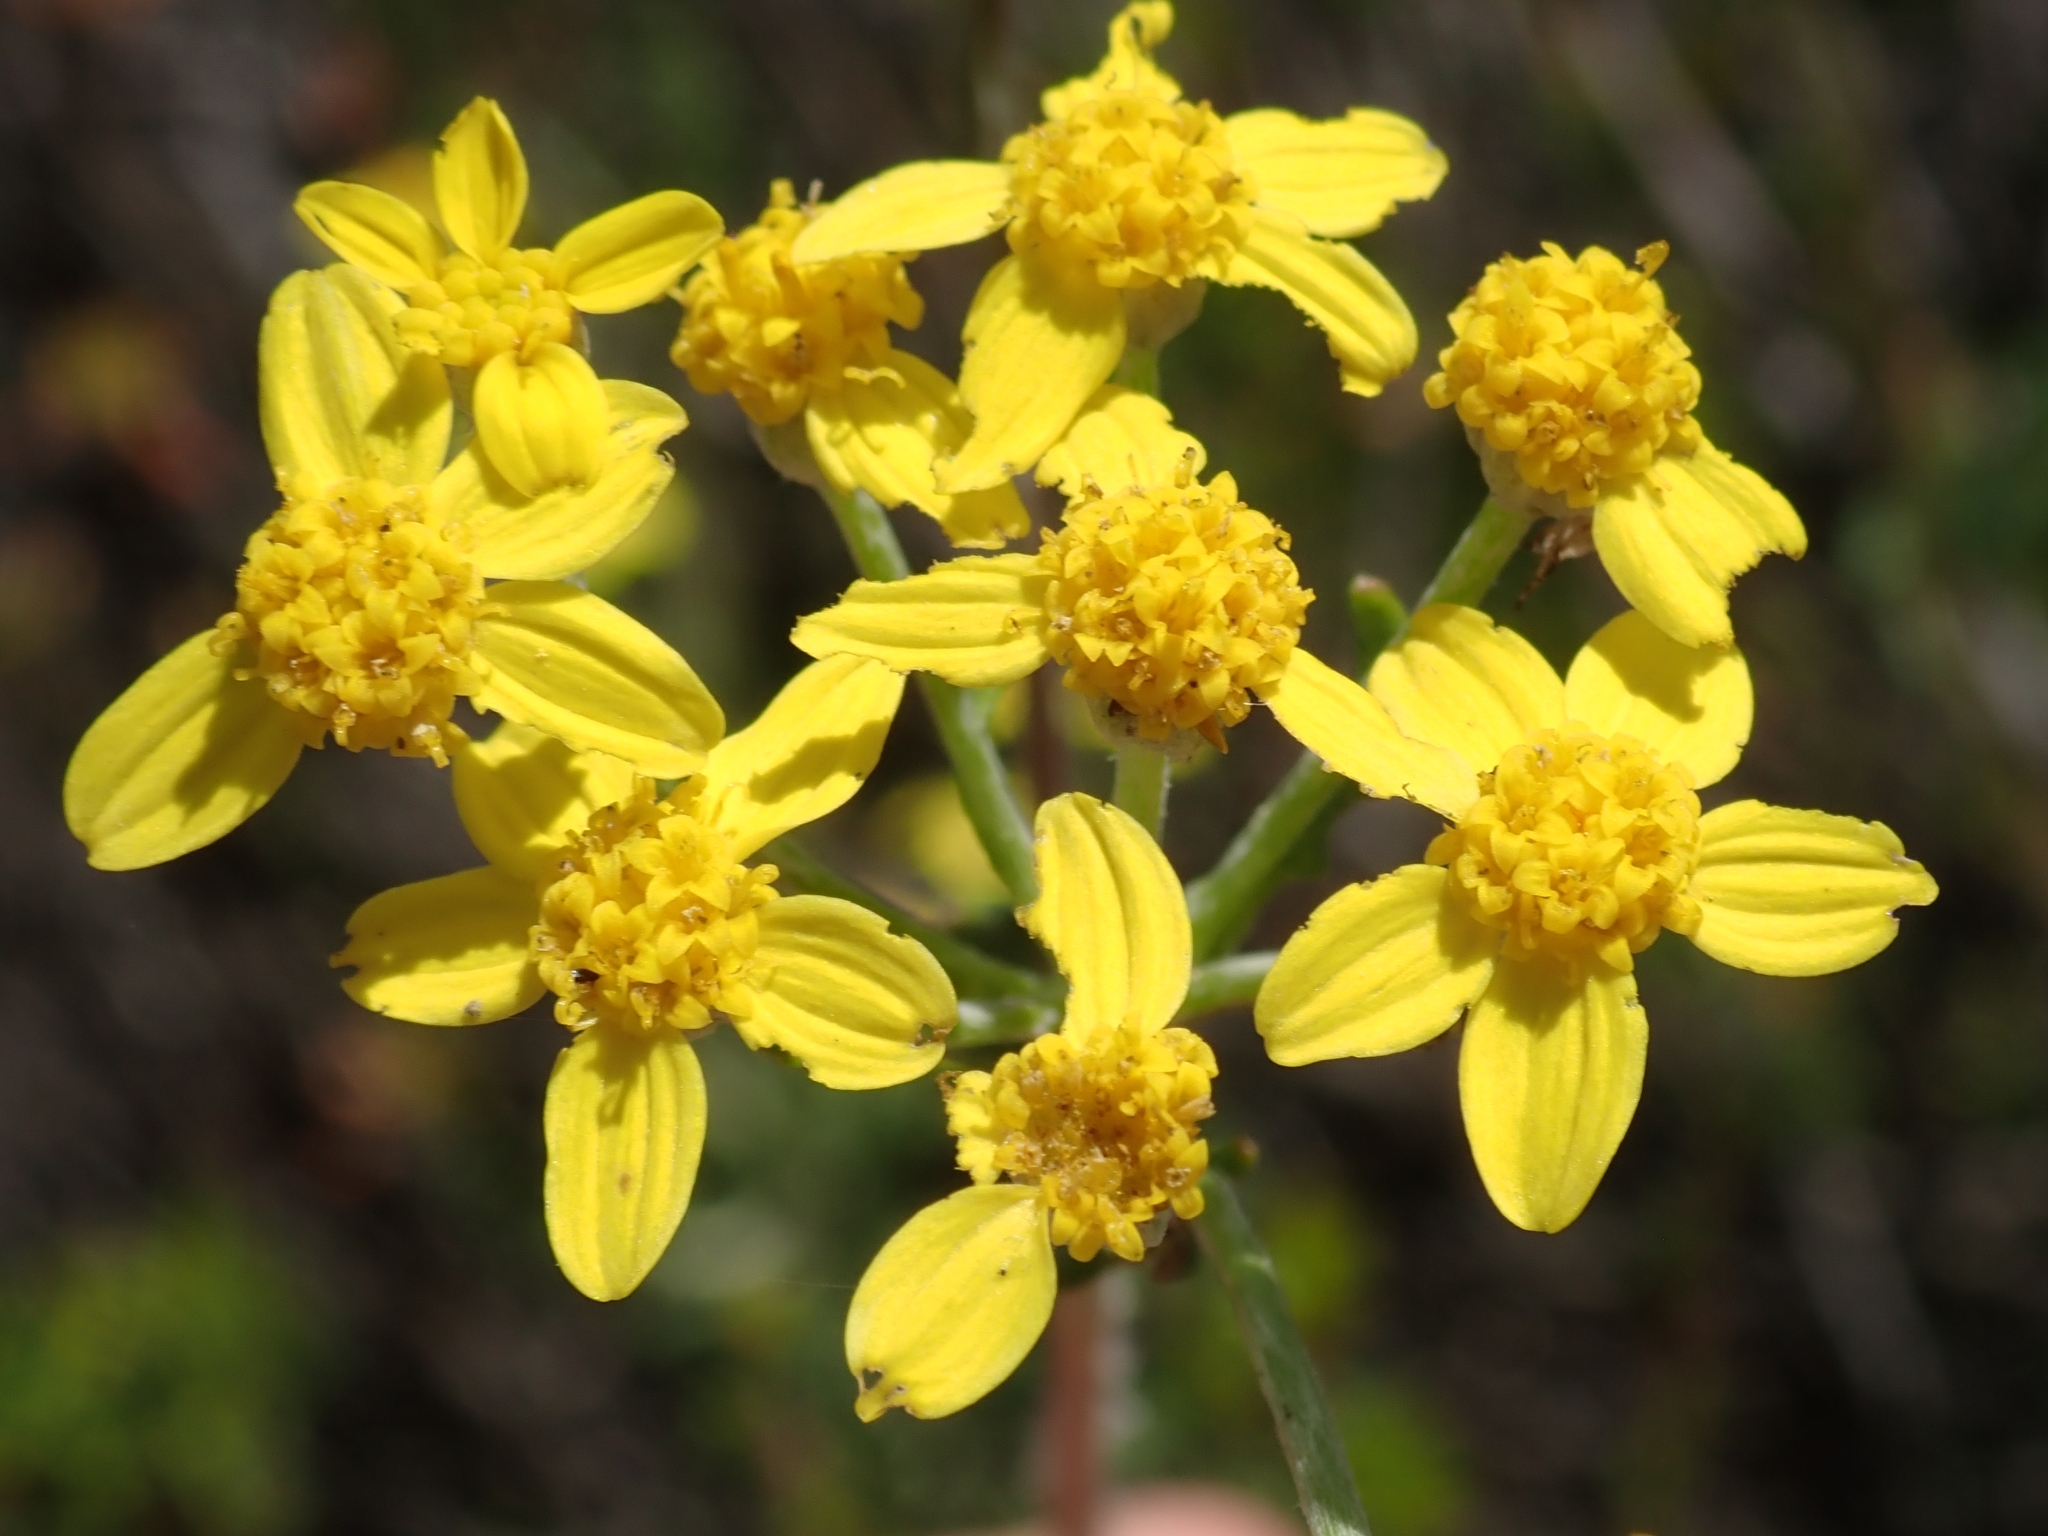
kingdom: Plantae
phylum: Tracheophyta
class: Magnoliopsida
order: Asterales
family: Asteraceae
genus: Eriophyllum
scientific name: Eriophyllum confertiflorum
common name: Golden-yarrow
